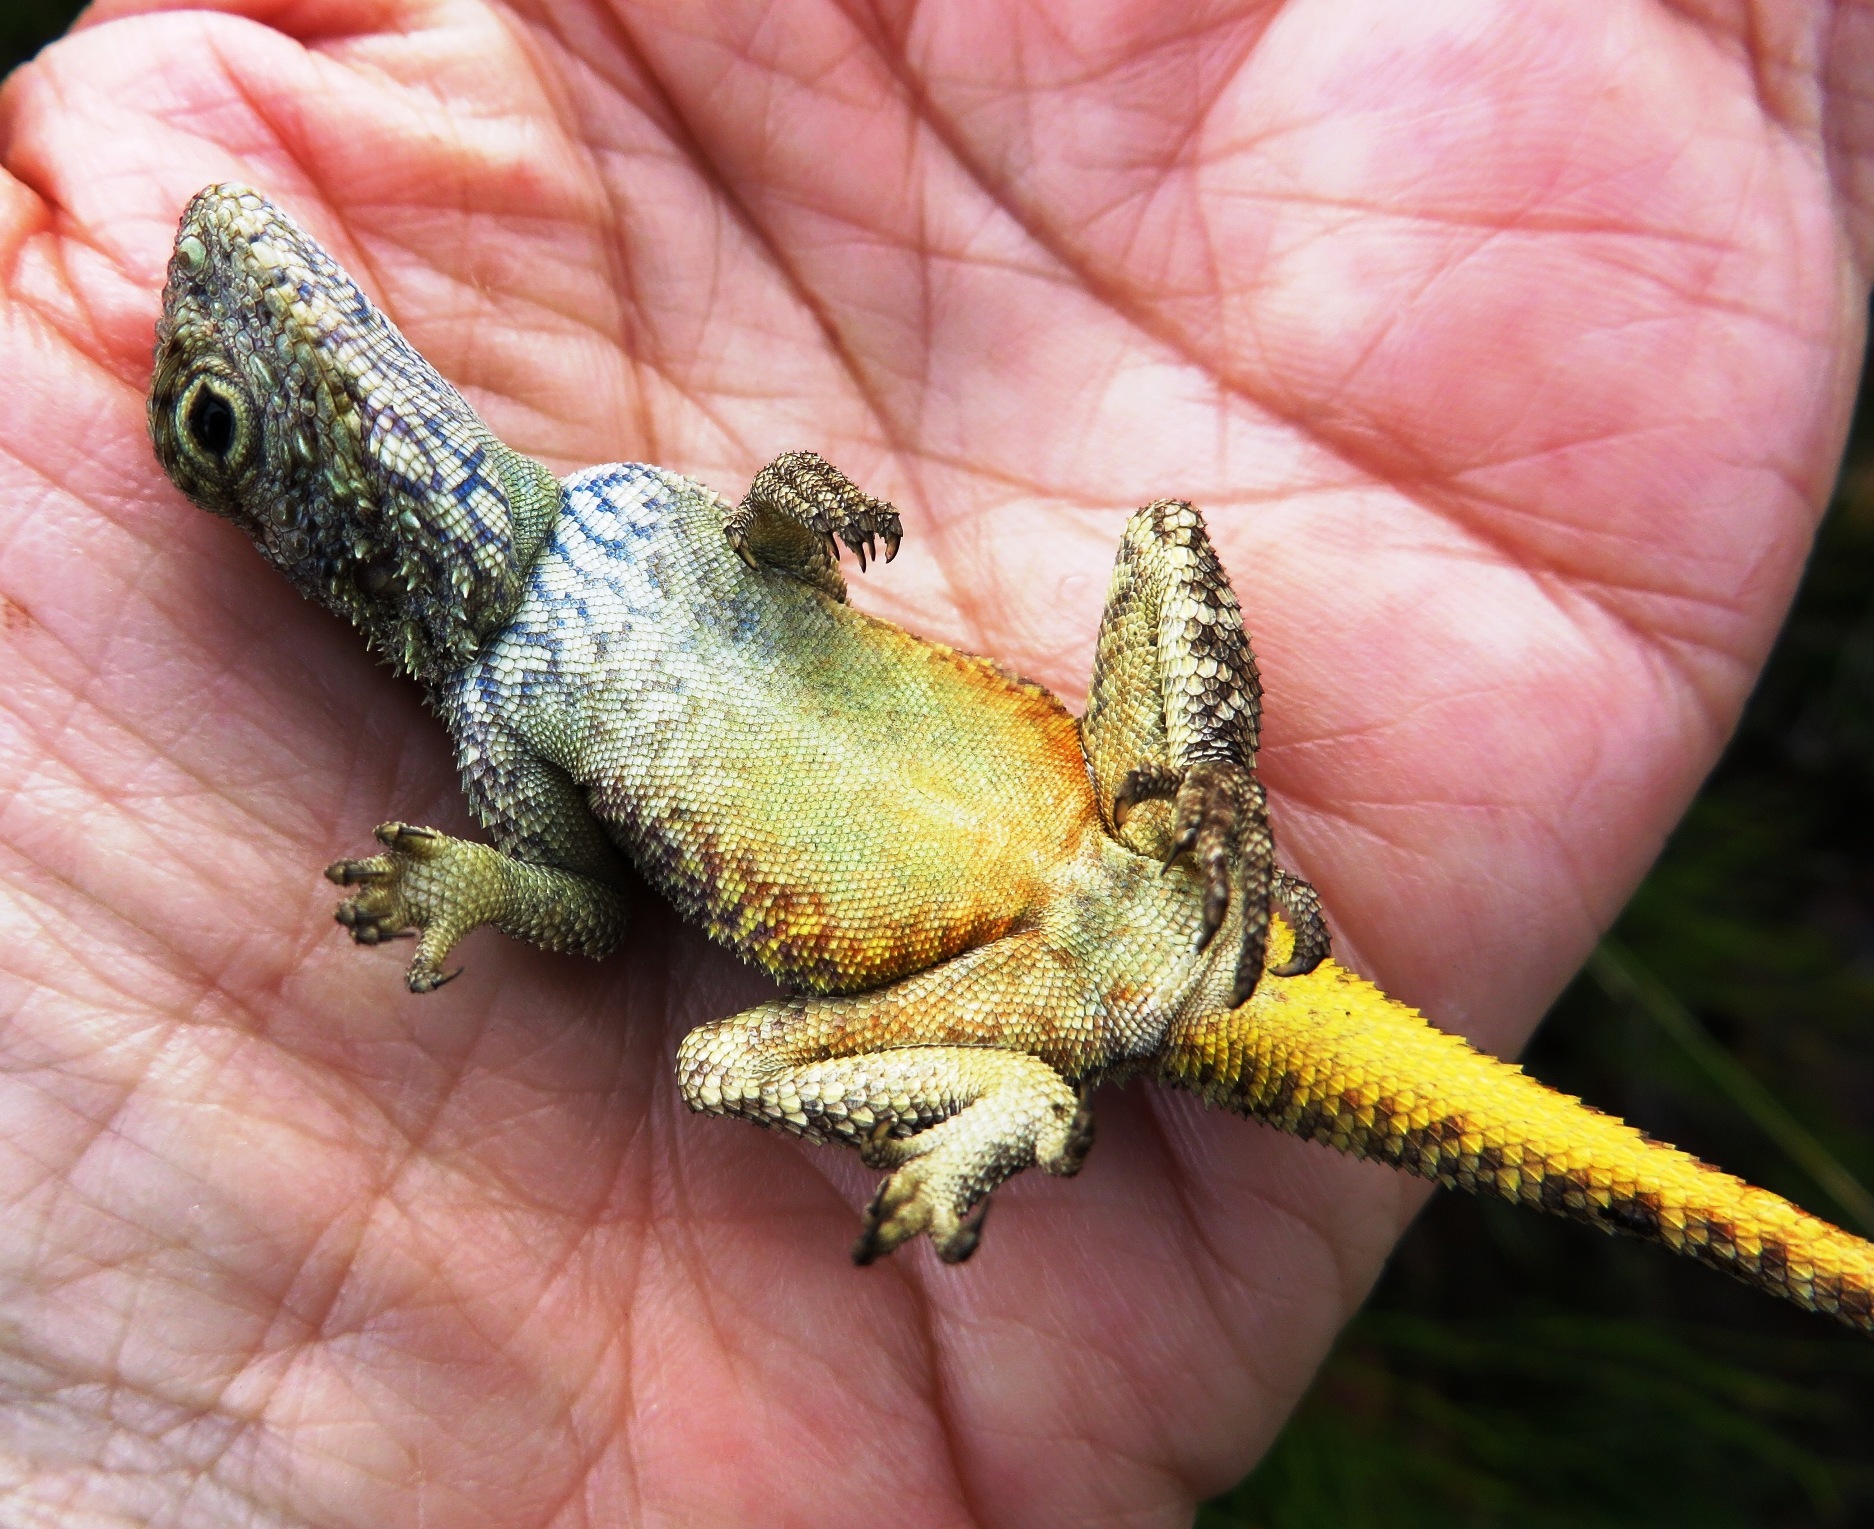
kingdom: Animalia
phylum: Chordata
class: Squamata
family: Agamidae
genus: Agama
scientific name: Agama atra
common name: Southern african rock agama
